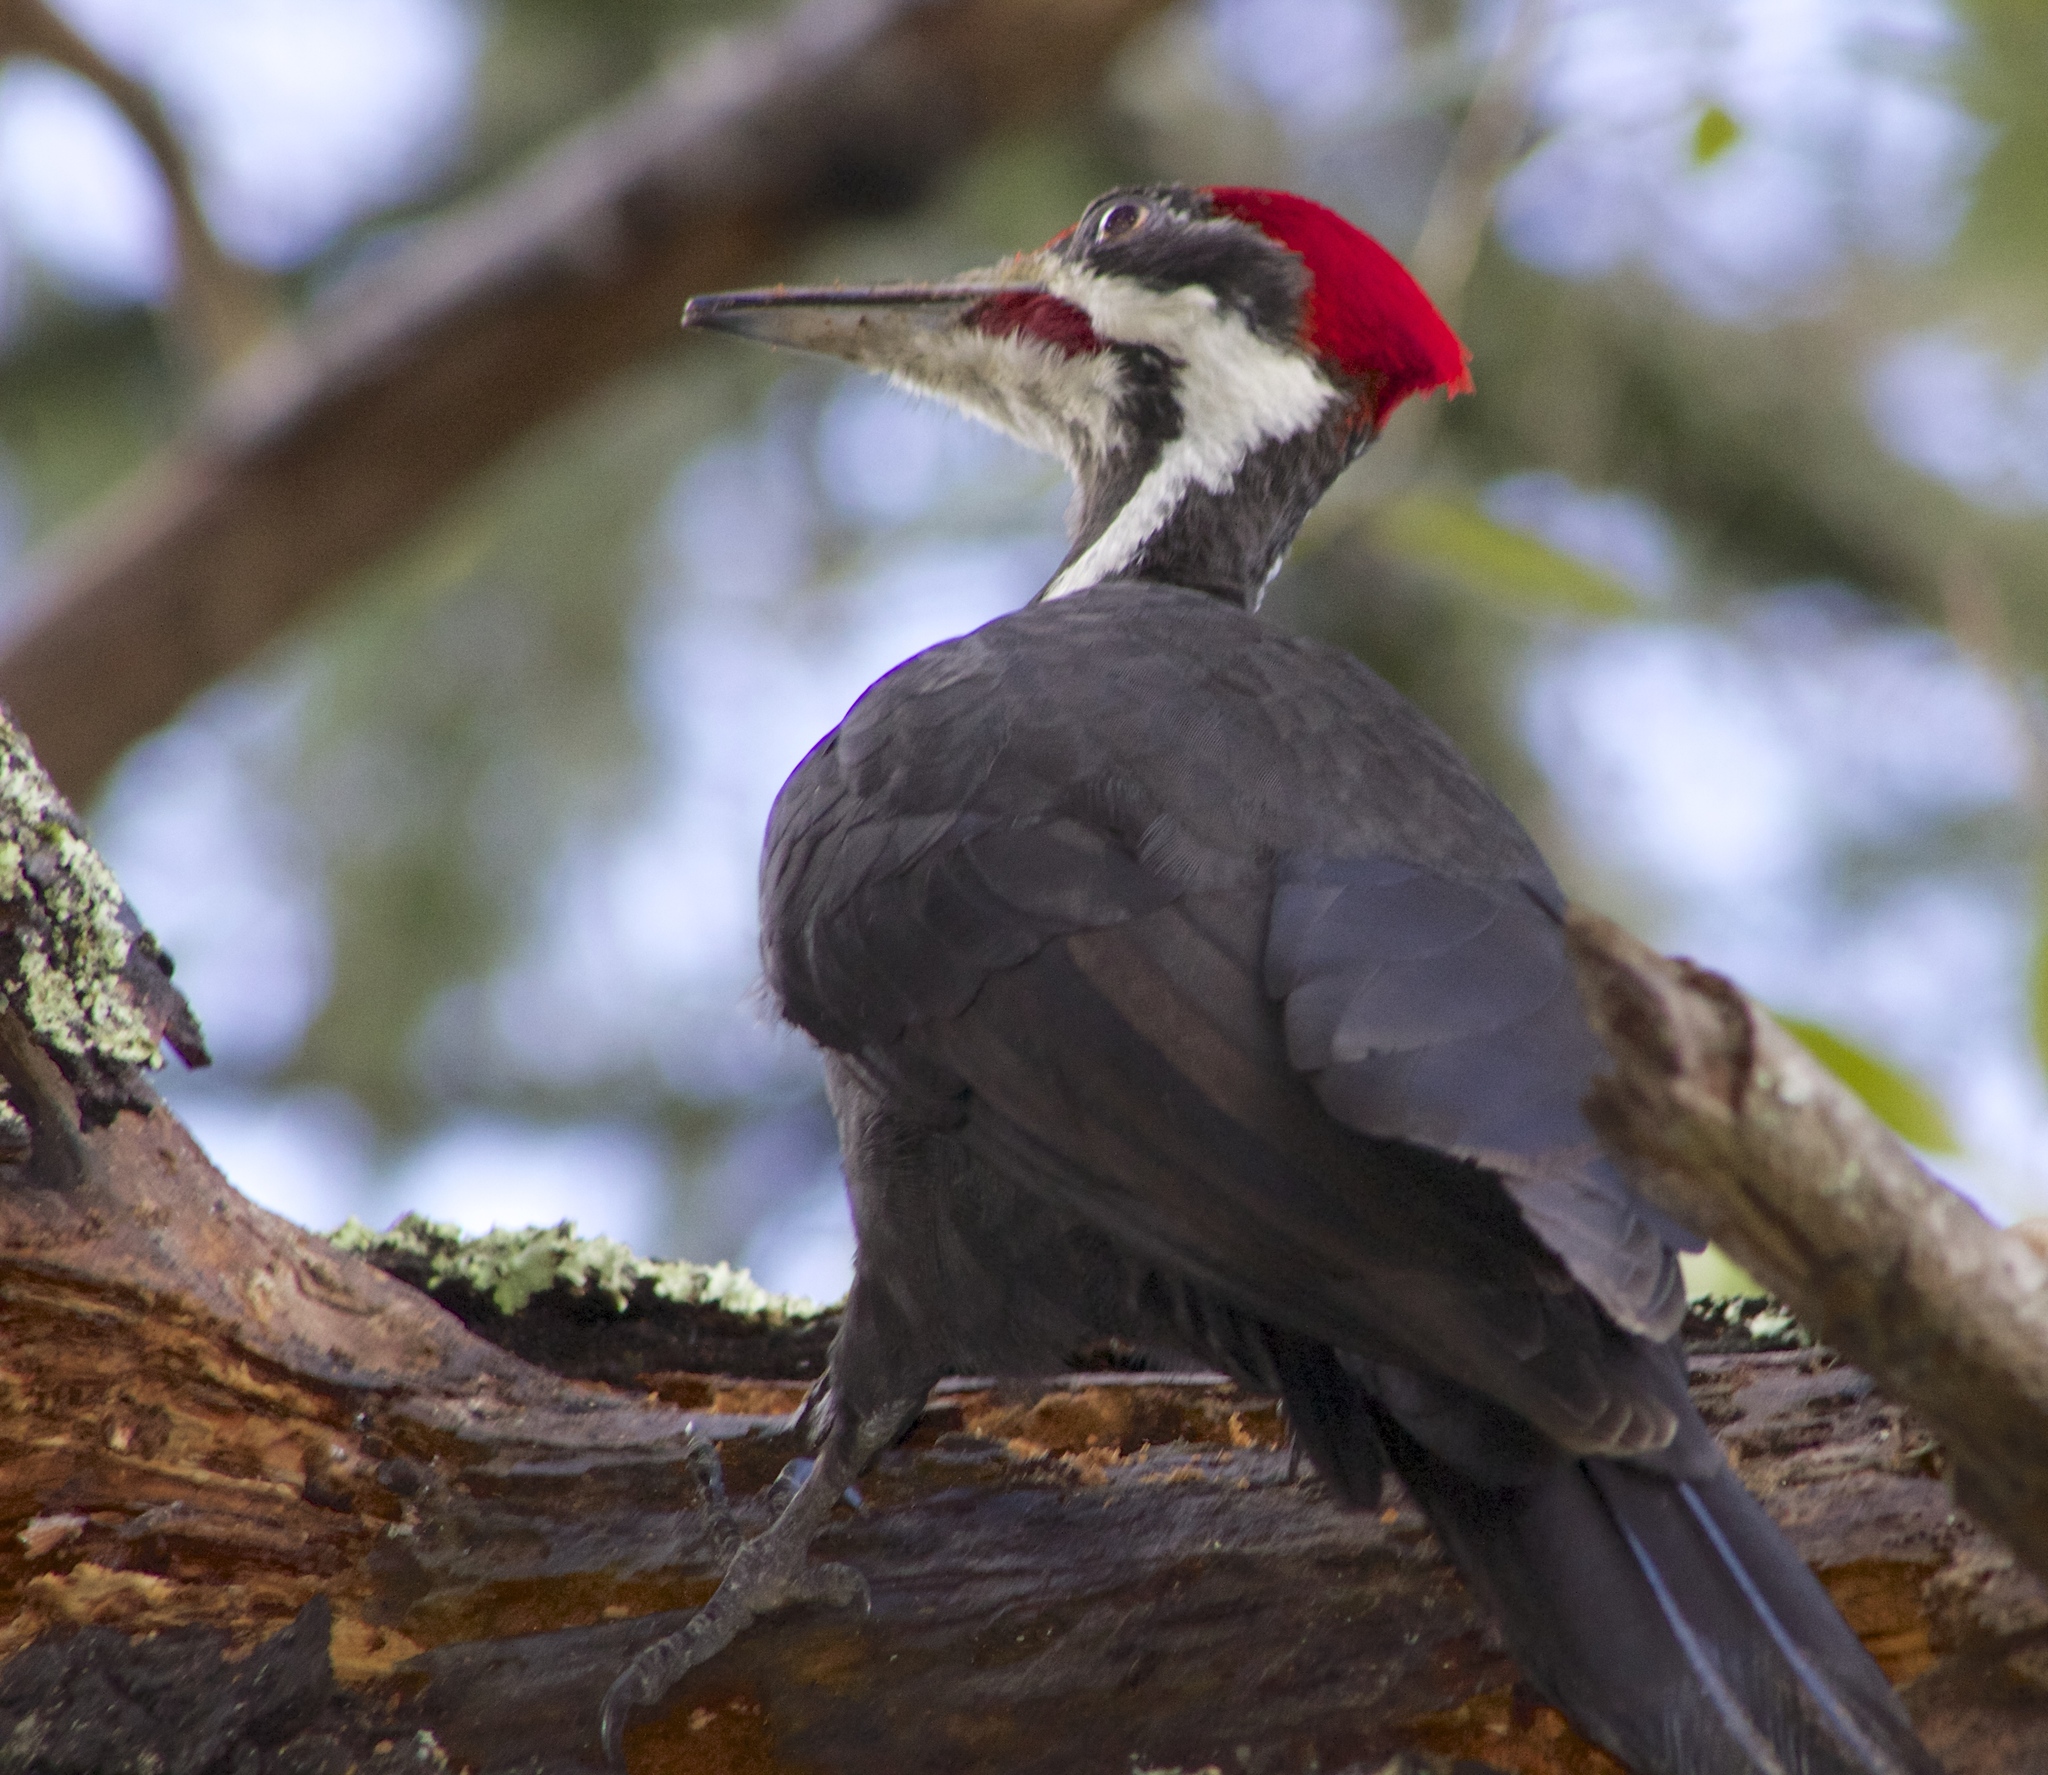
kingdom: Animalia
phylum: Chordata
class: Aves
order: Piciformes
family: Picidae
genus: Dryocopus
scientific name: Dryocopus pileatus
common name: Pileated woodpecker
